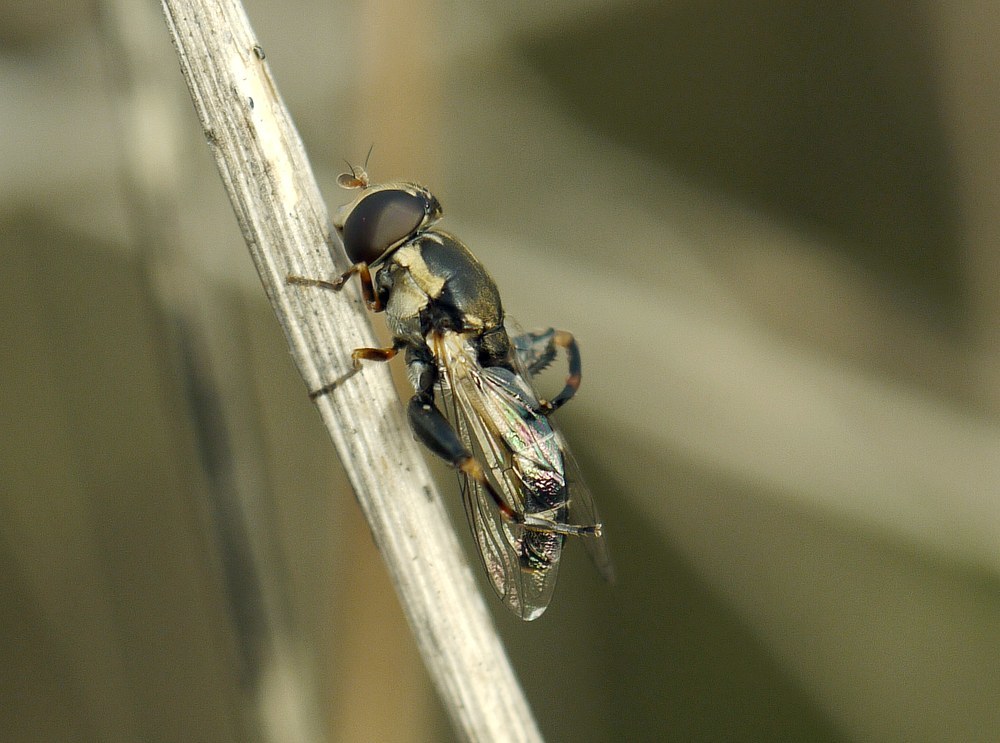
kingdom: Animalia
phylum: Arthropoda
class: Insecta
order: Diptera
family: Syrphidae
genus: Syritta
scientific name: Syritta pipiens
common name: Hover fly
